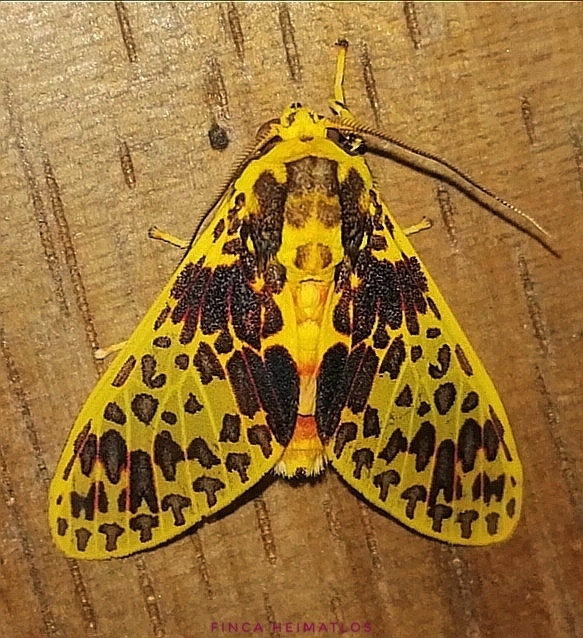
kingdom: Animalia
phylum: Arthropoda
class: Insecta
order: Lepidoptera
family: Erebidae
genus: Amaxia
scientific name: Amaxia lepida
